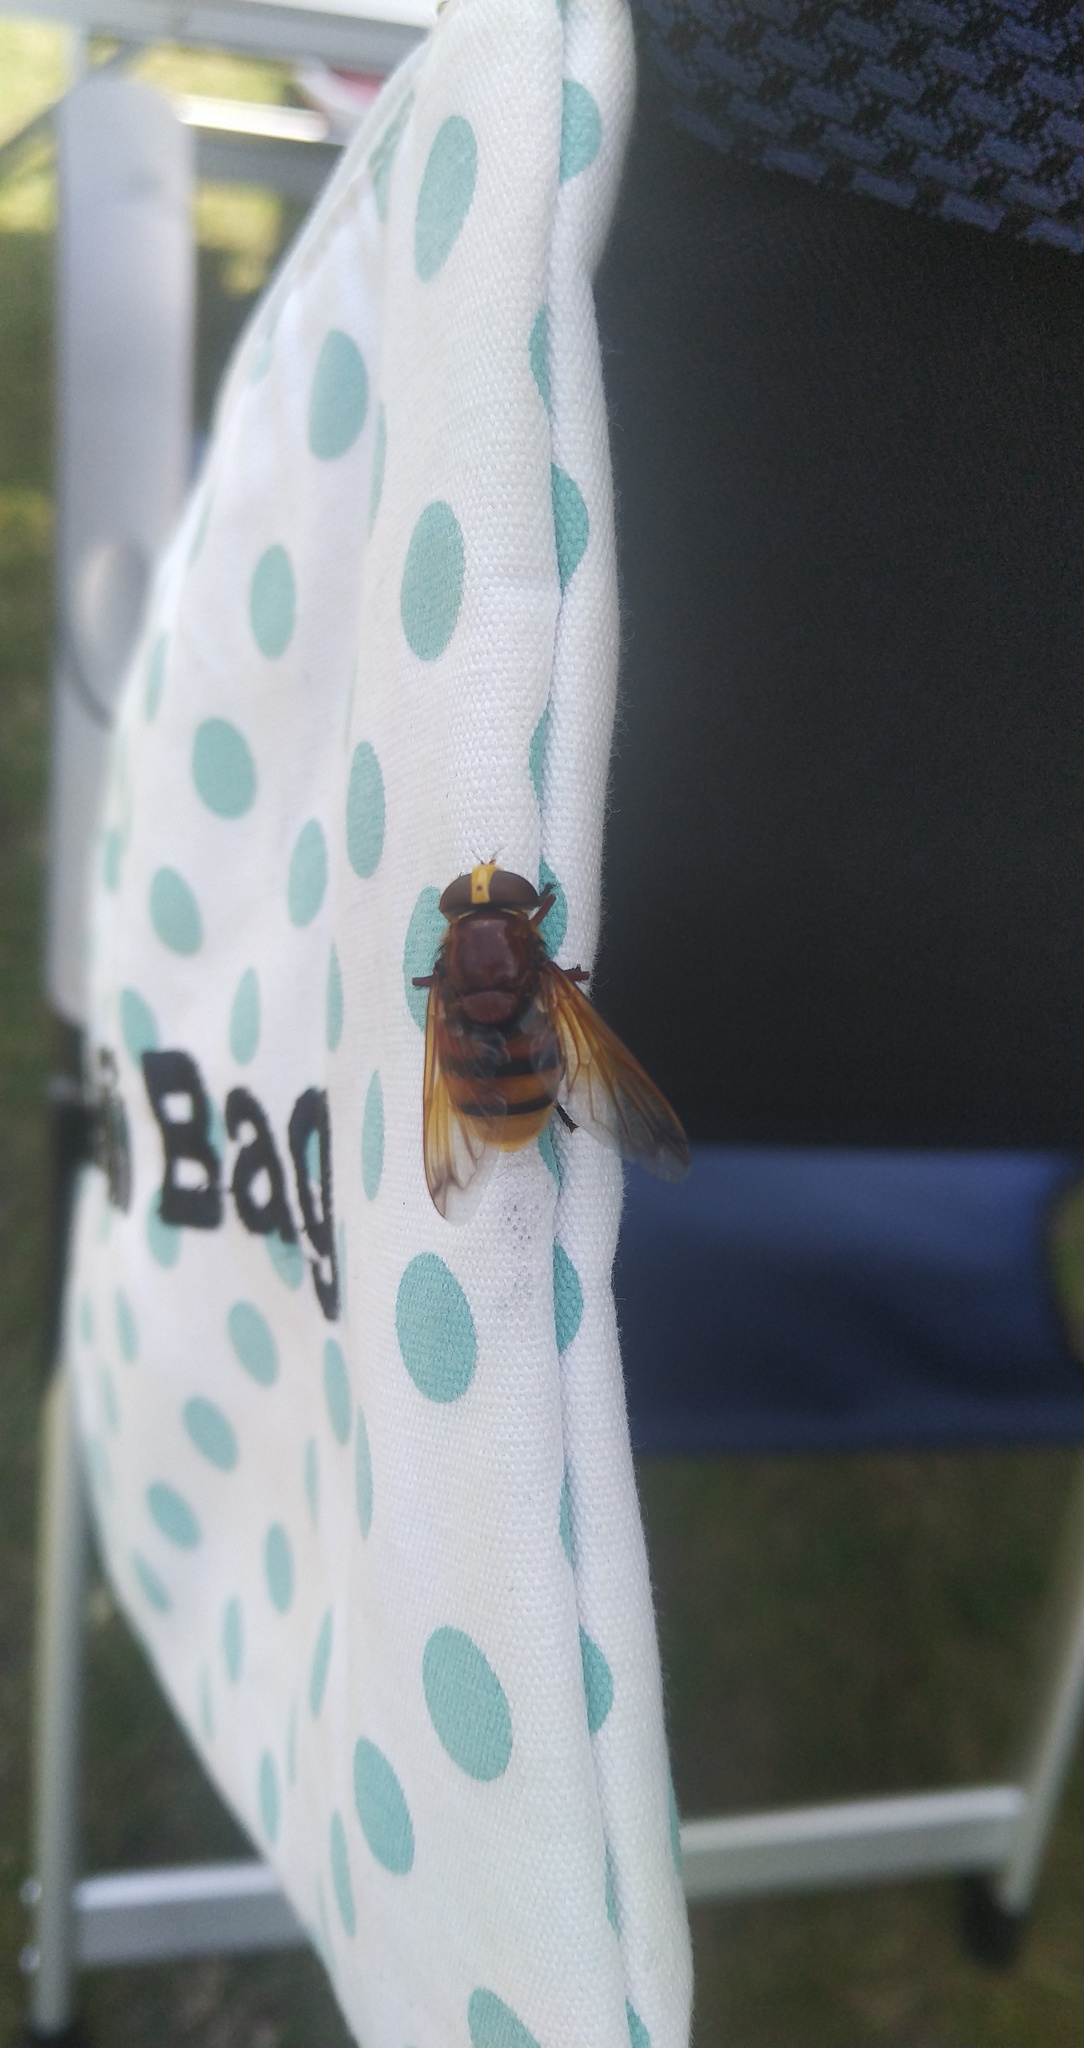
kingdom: Animalia
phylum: Arthropoda
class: Insecta
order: Diptera
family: Syrphidae
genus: Volucella
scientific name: Volucella zonaria
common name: Hornet hoverfly
